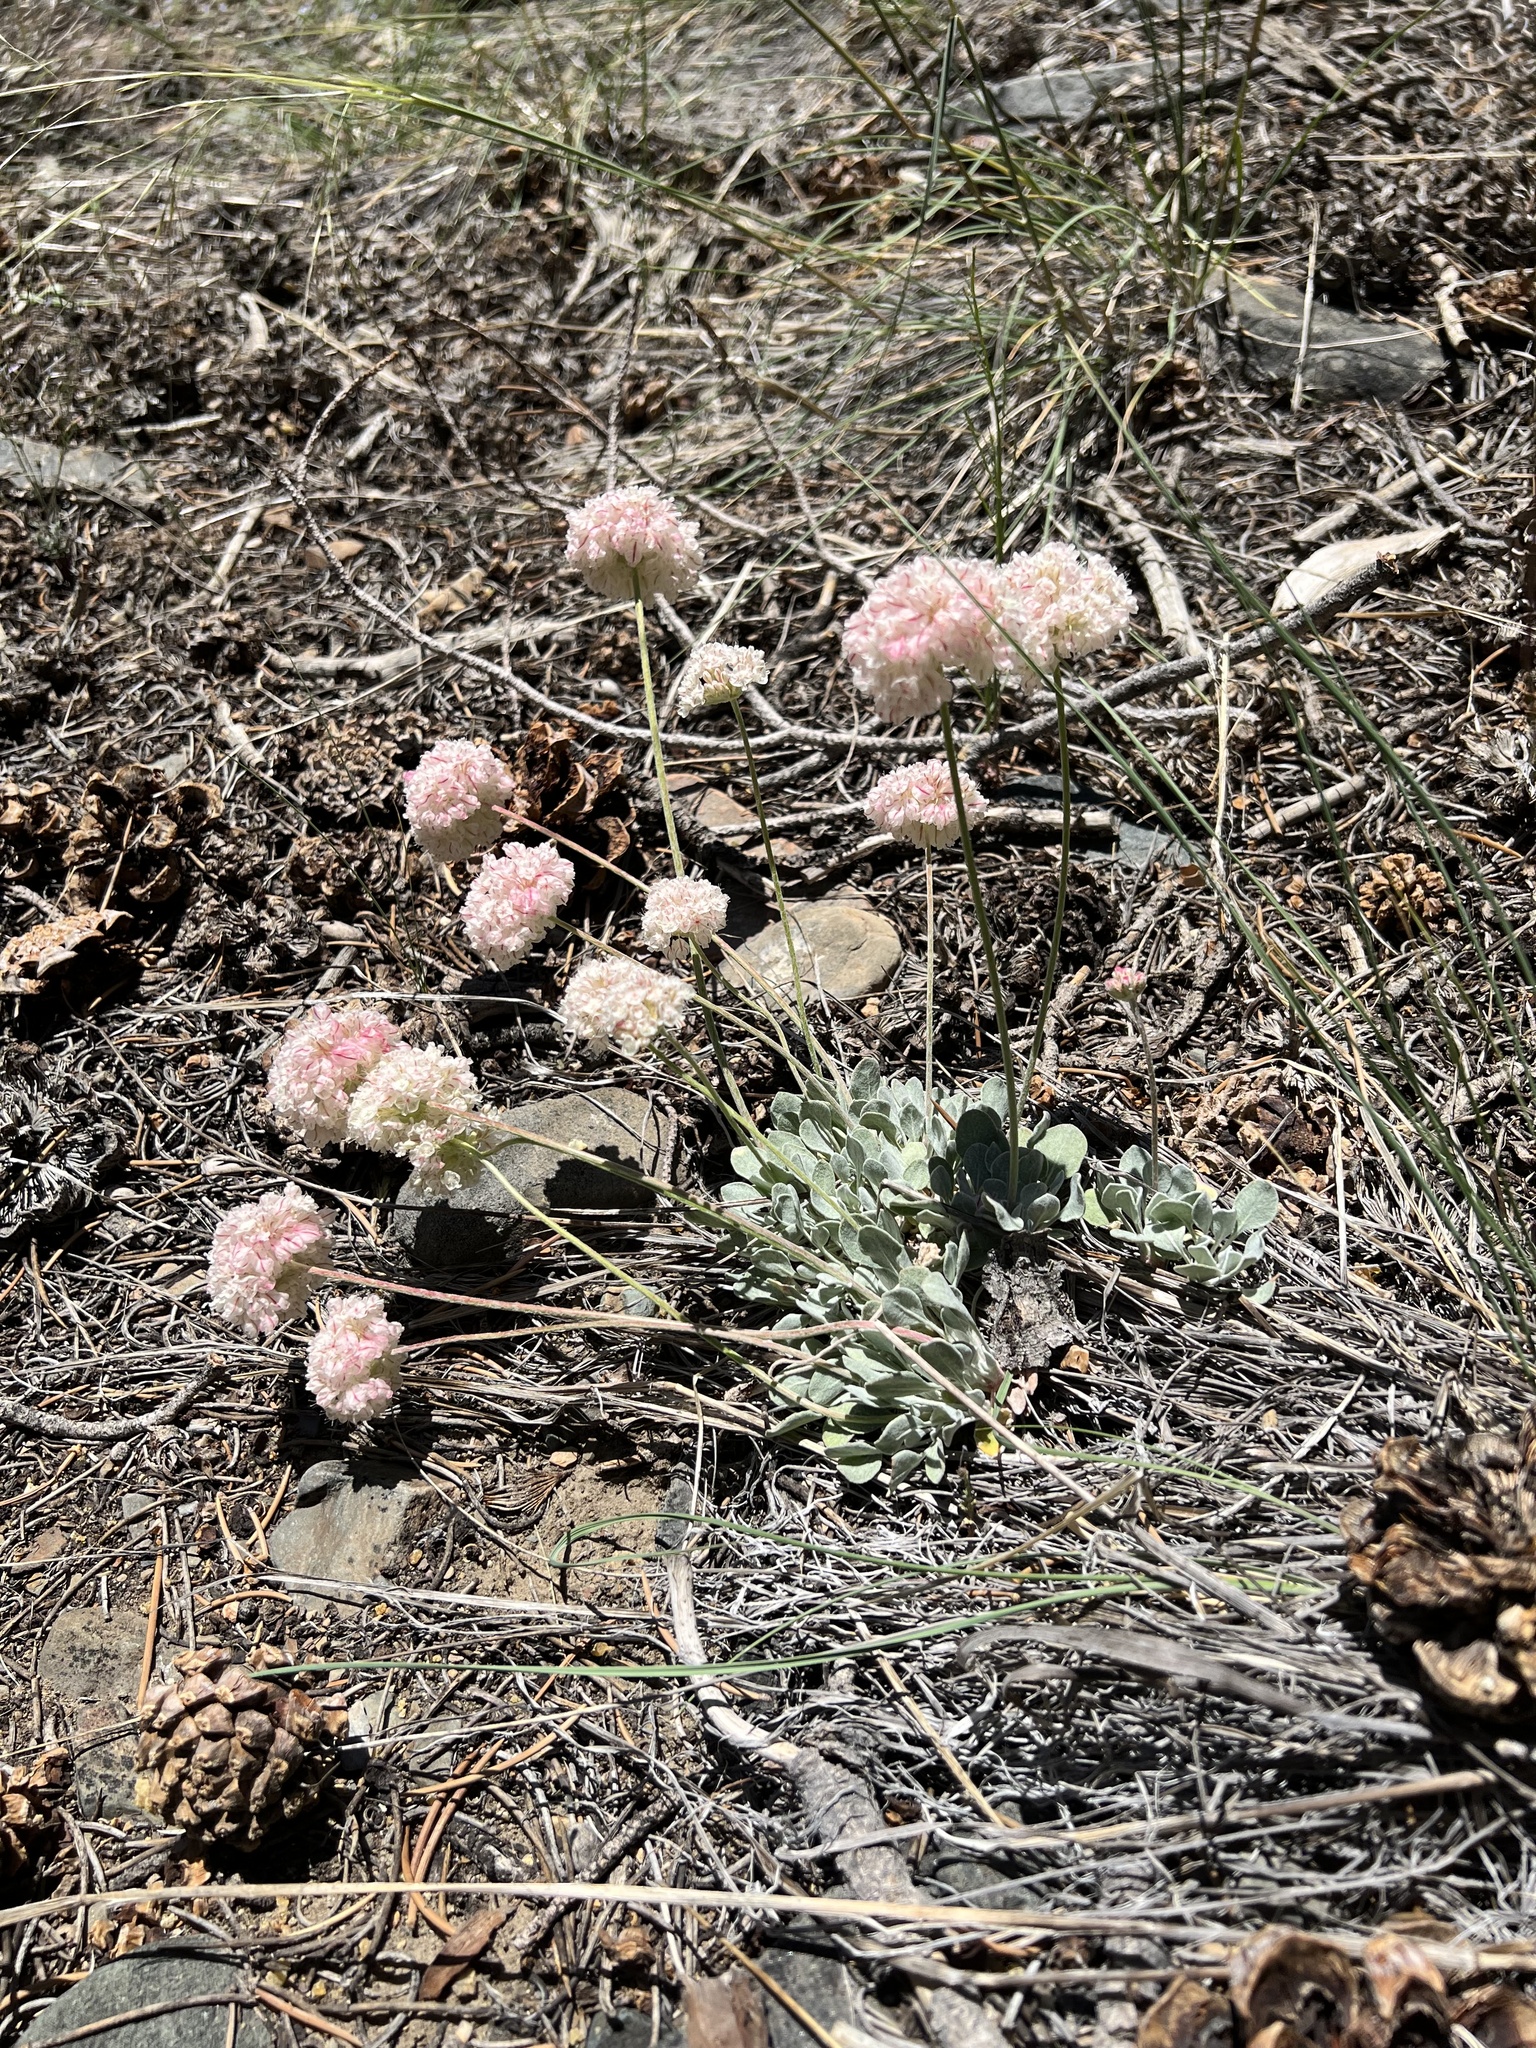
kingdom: Plantae
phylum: Tracheophyta
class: Magnoliopsida
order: Caryophyllales
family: Polygonaceae
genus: Eriogonum
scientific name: Eriogonum ovalifolium
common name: Cushion buckwheat
